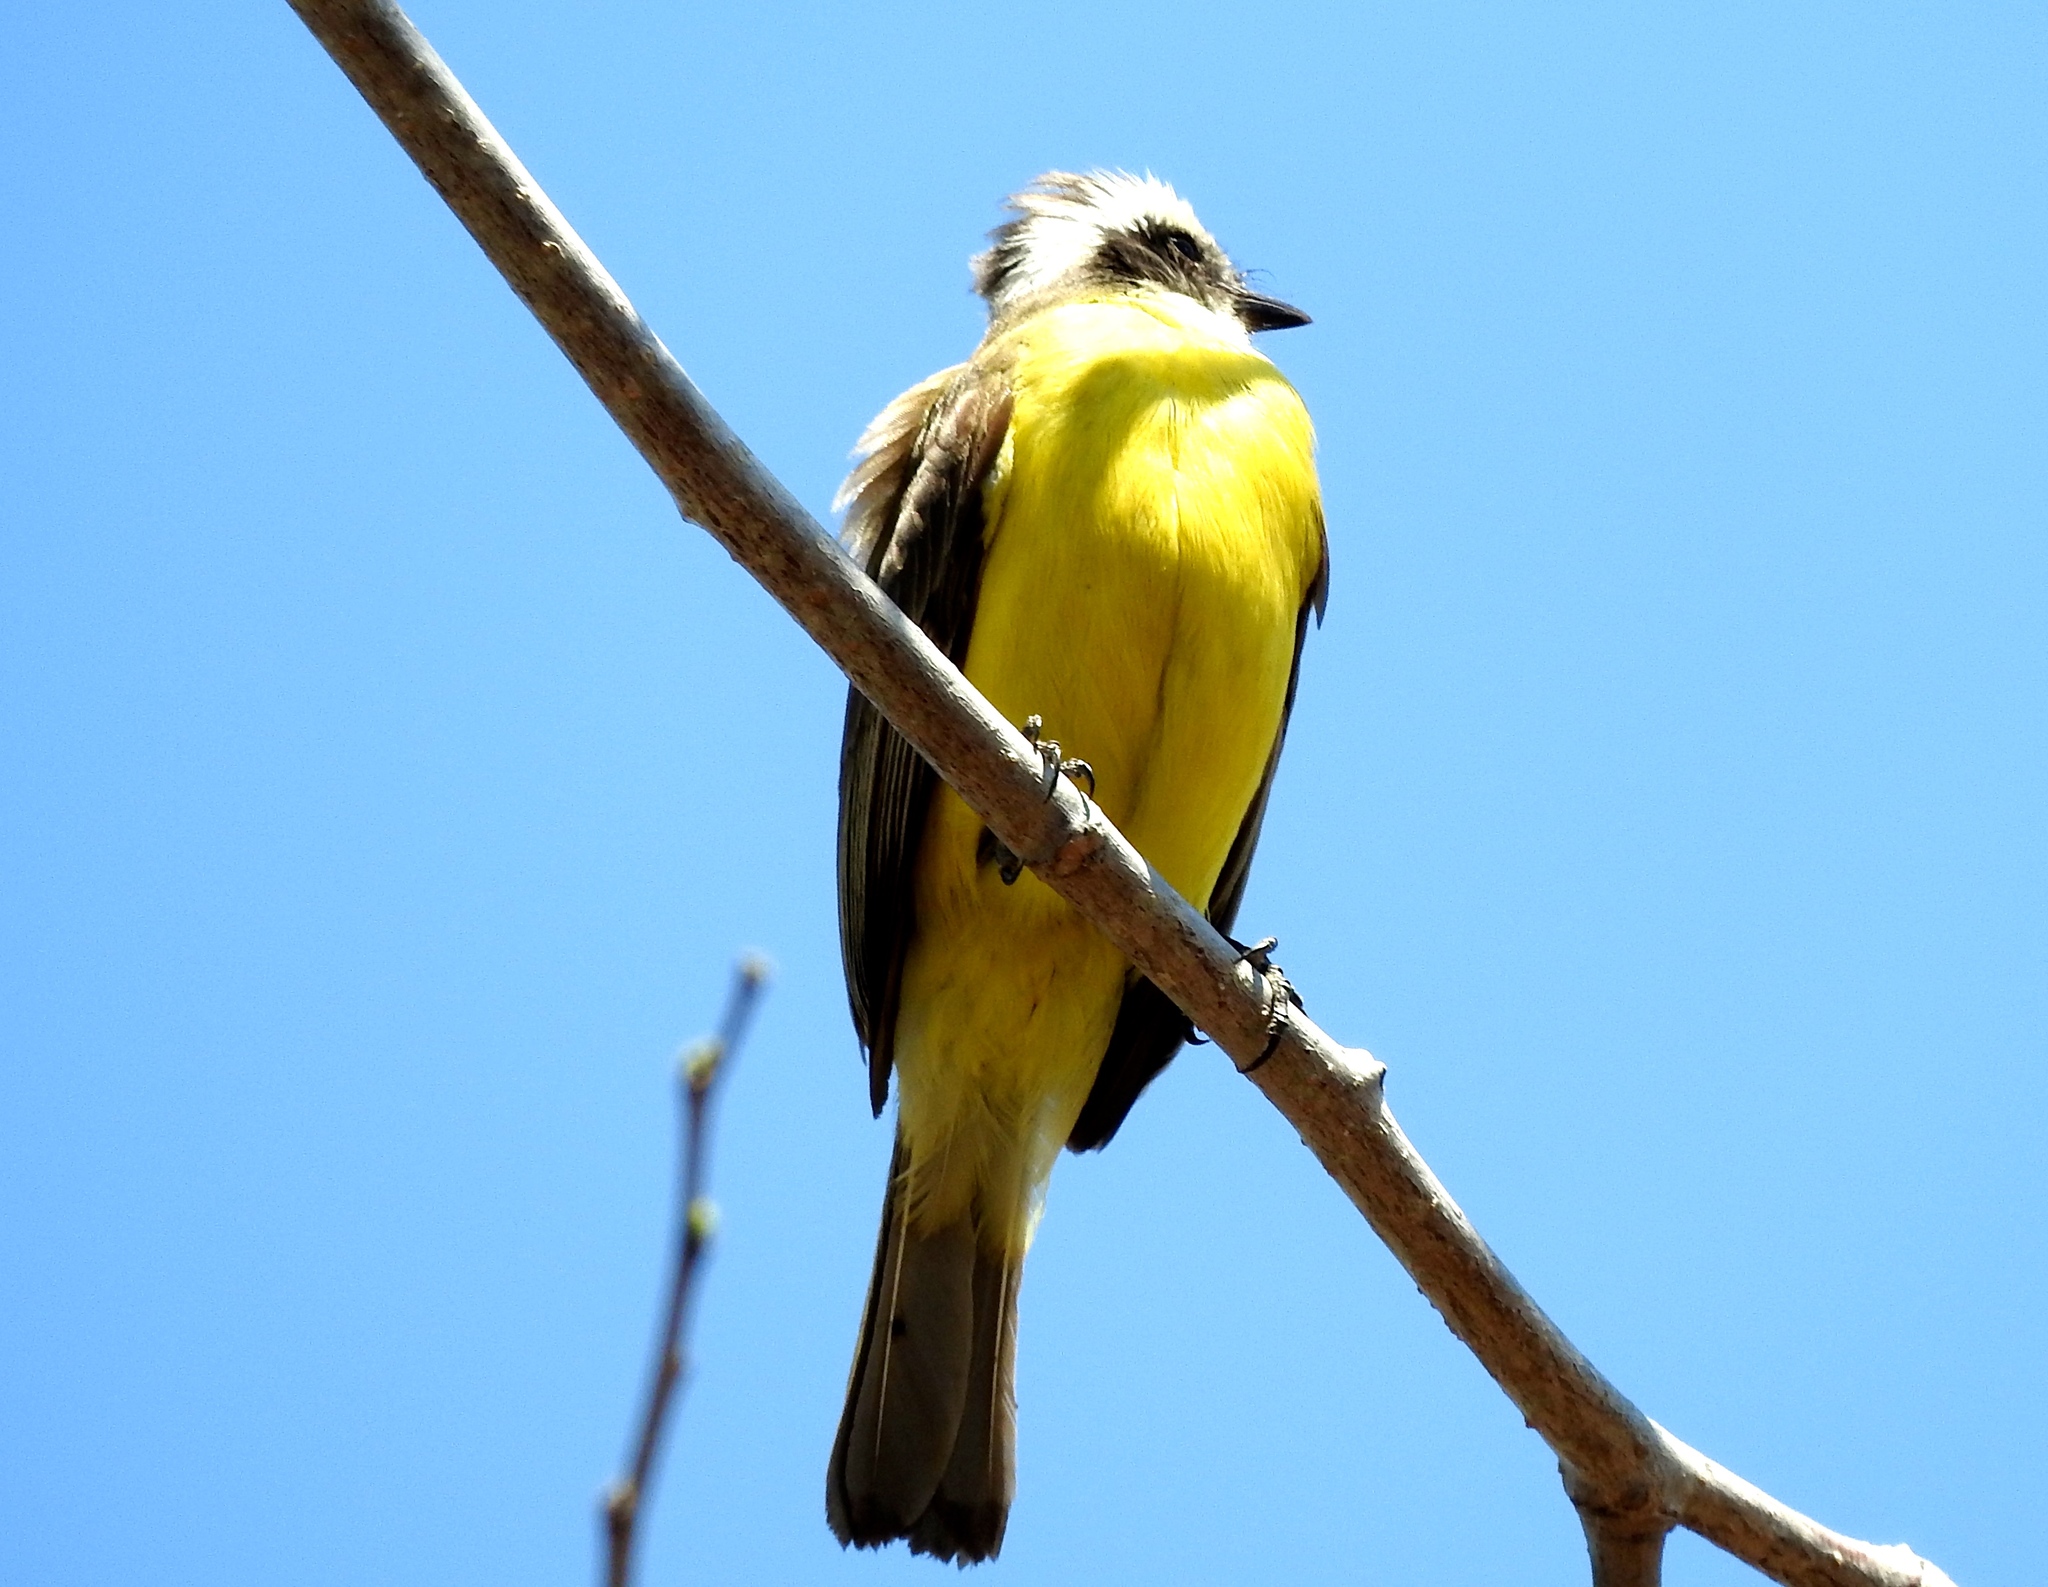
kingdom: Animalia
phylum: Chordata
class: Aves
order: Passeriformes
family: Tyrannidae
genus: Myiozetetes
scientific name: Myiozetetes similis
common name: Social flycatcher
